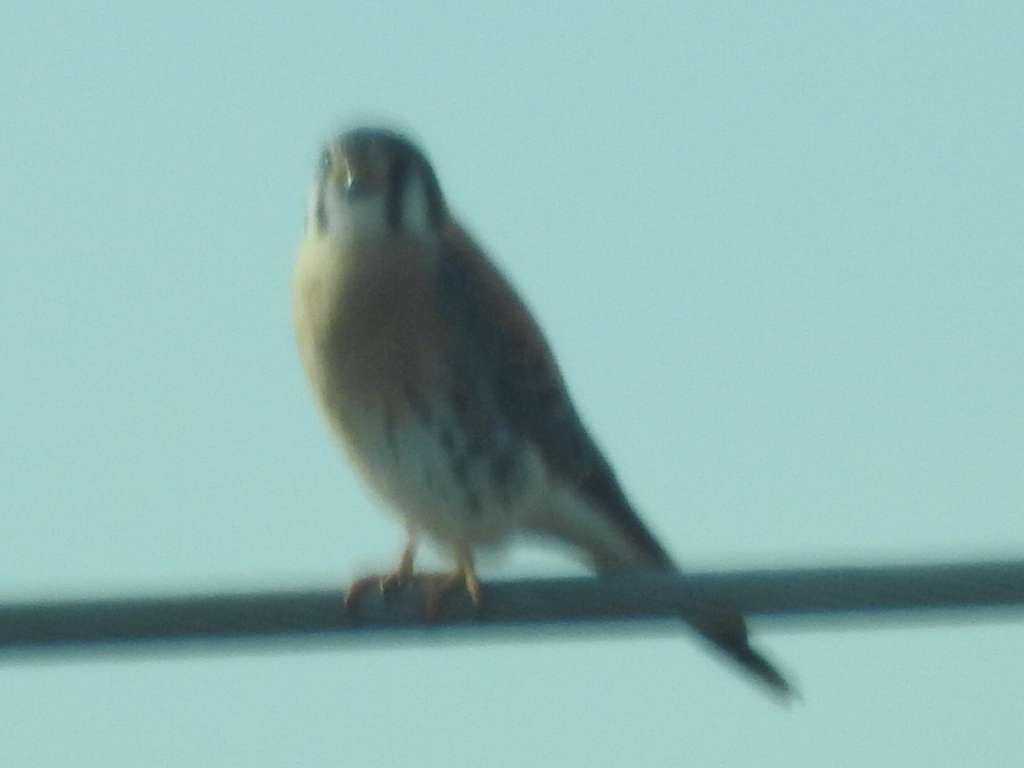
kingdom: Animalia
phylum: Chordata
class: Aves
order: Falconiformes
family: Falconidae
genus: Falco
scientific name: Falco sparverius
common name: American kestrel
